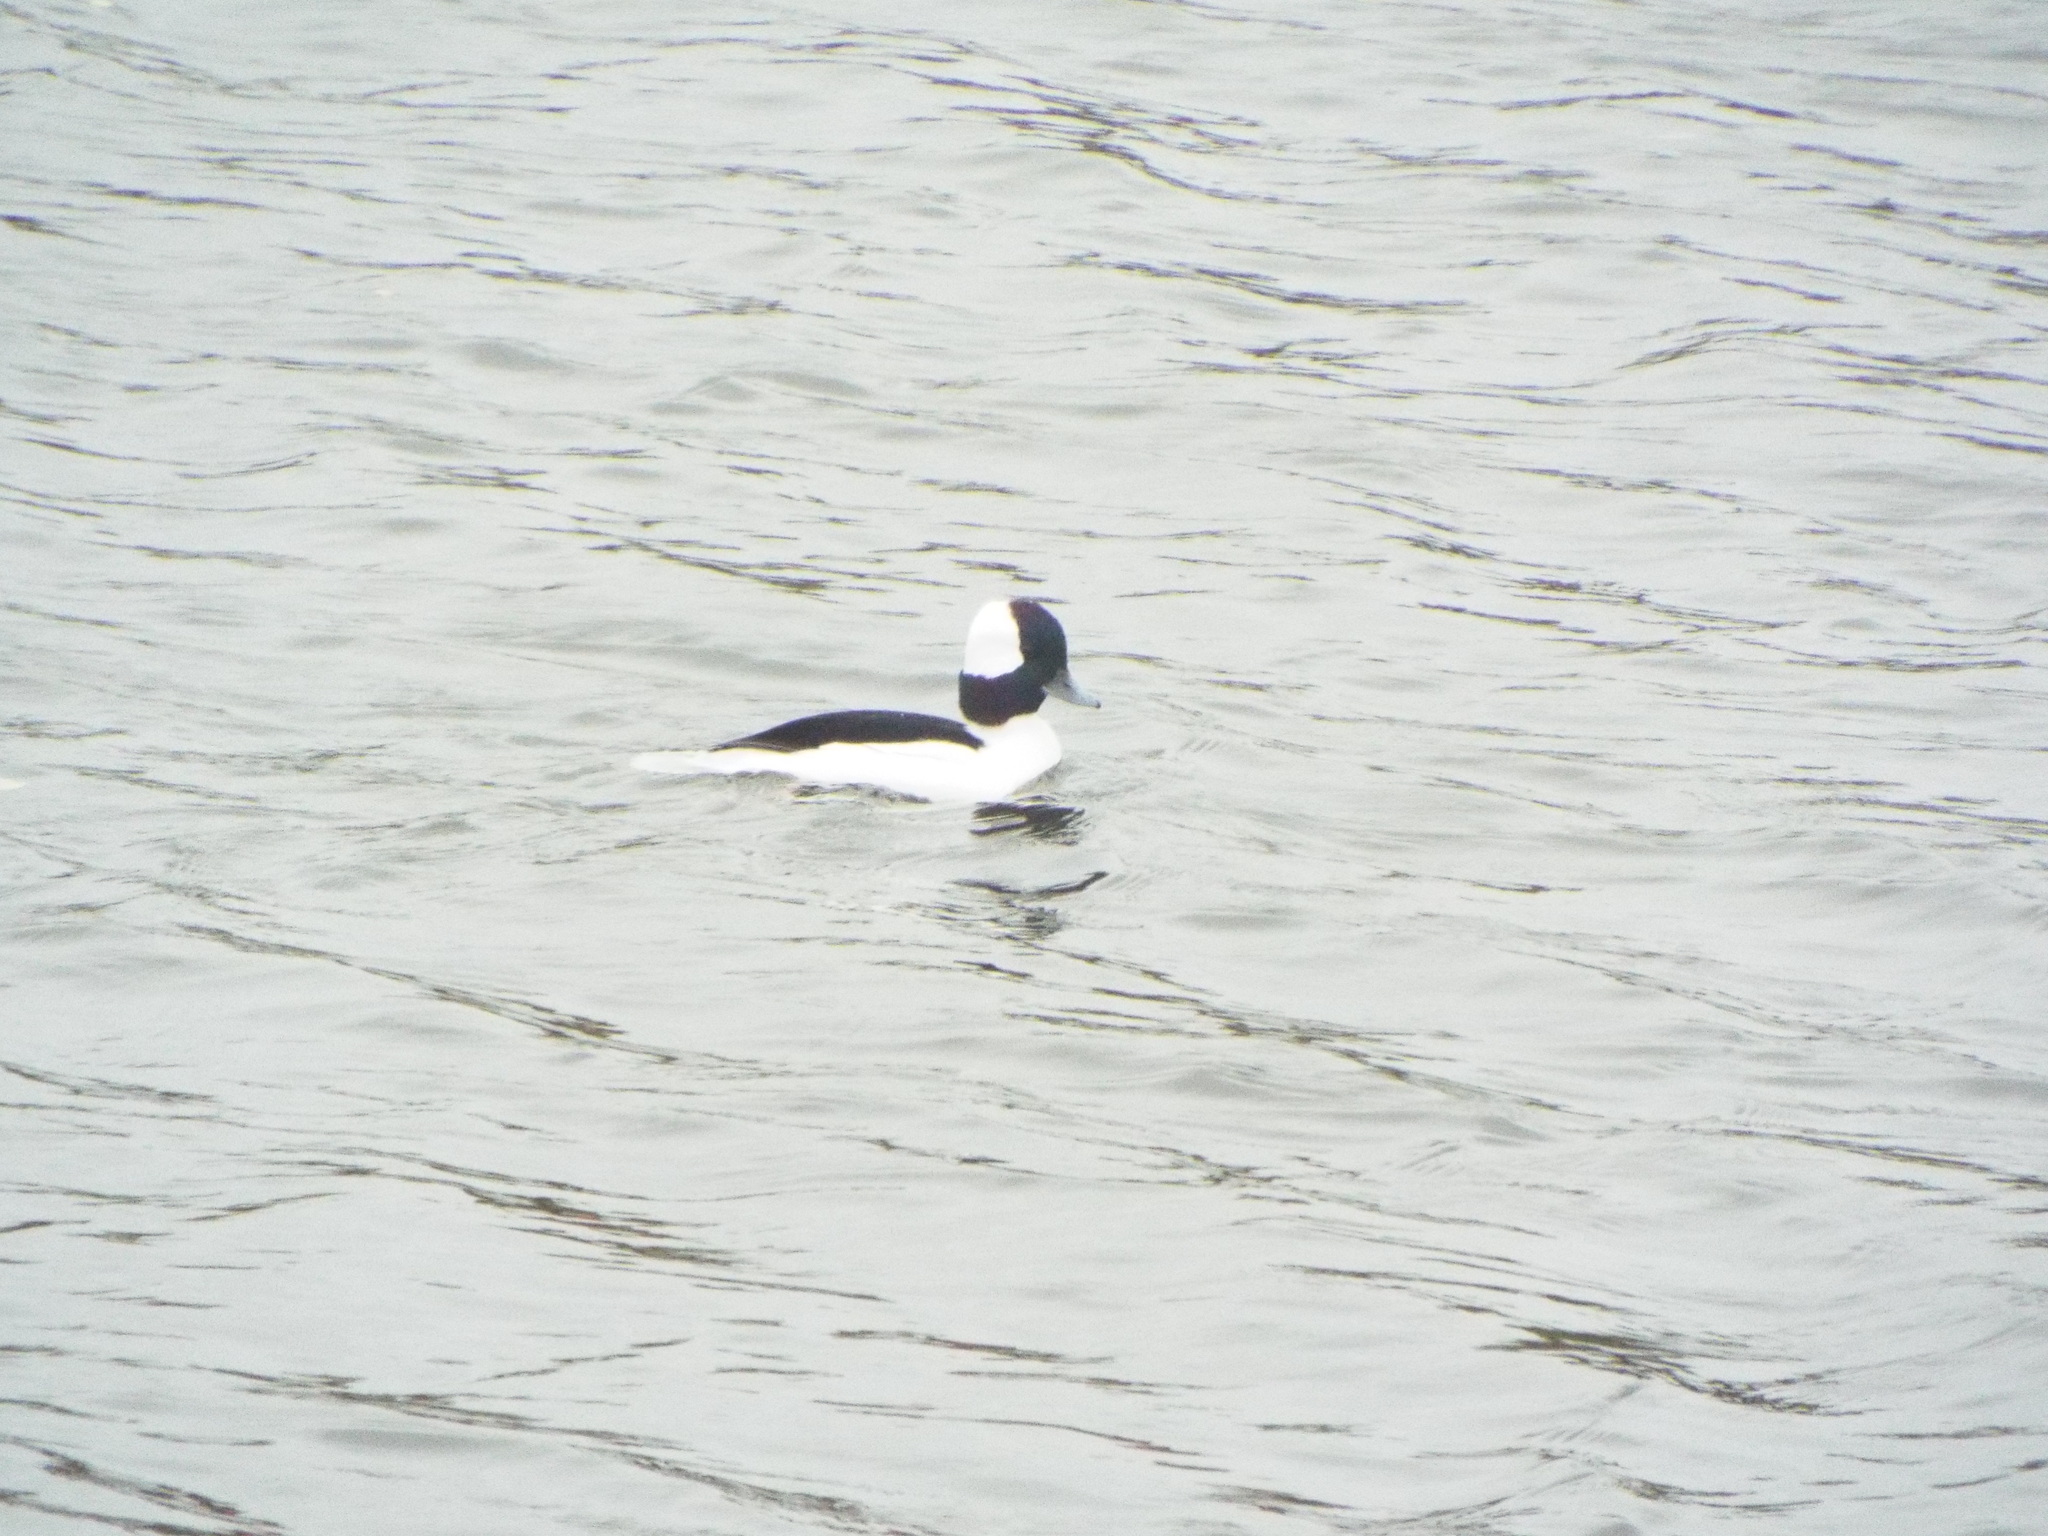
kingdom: Animalia
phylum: Chordata
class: Aves
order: Anseriformes
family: Anatidae
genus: Bucephala
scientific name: Bucephala albeola
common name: Bufflehead
